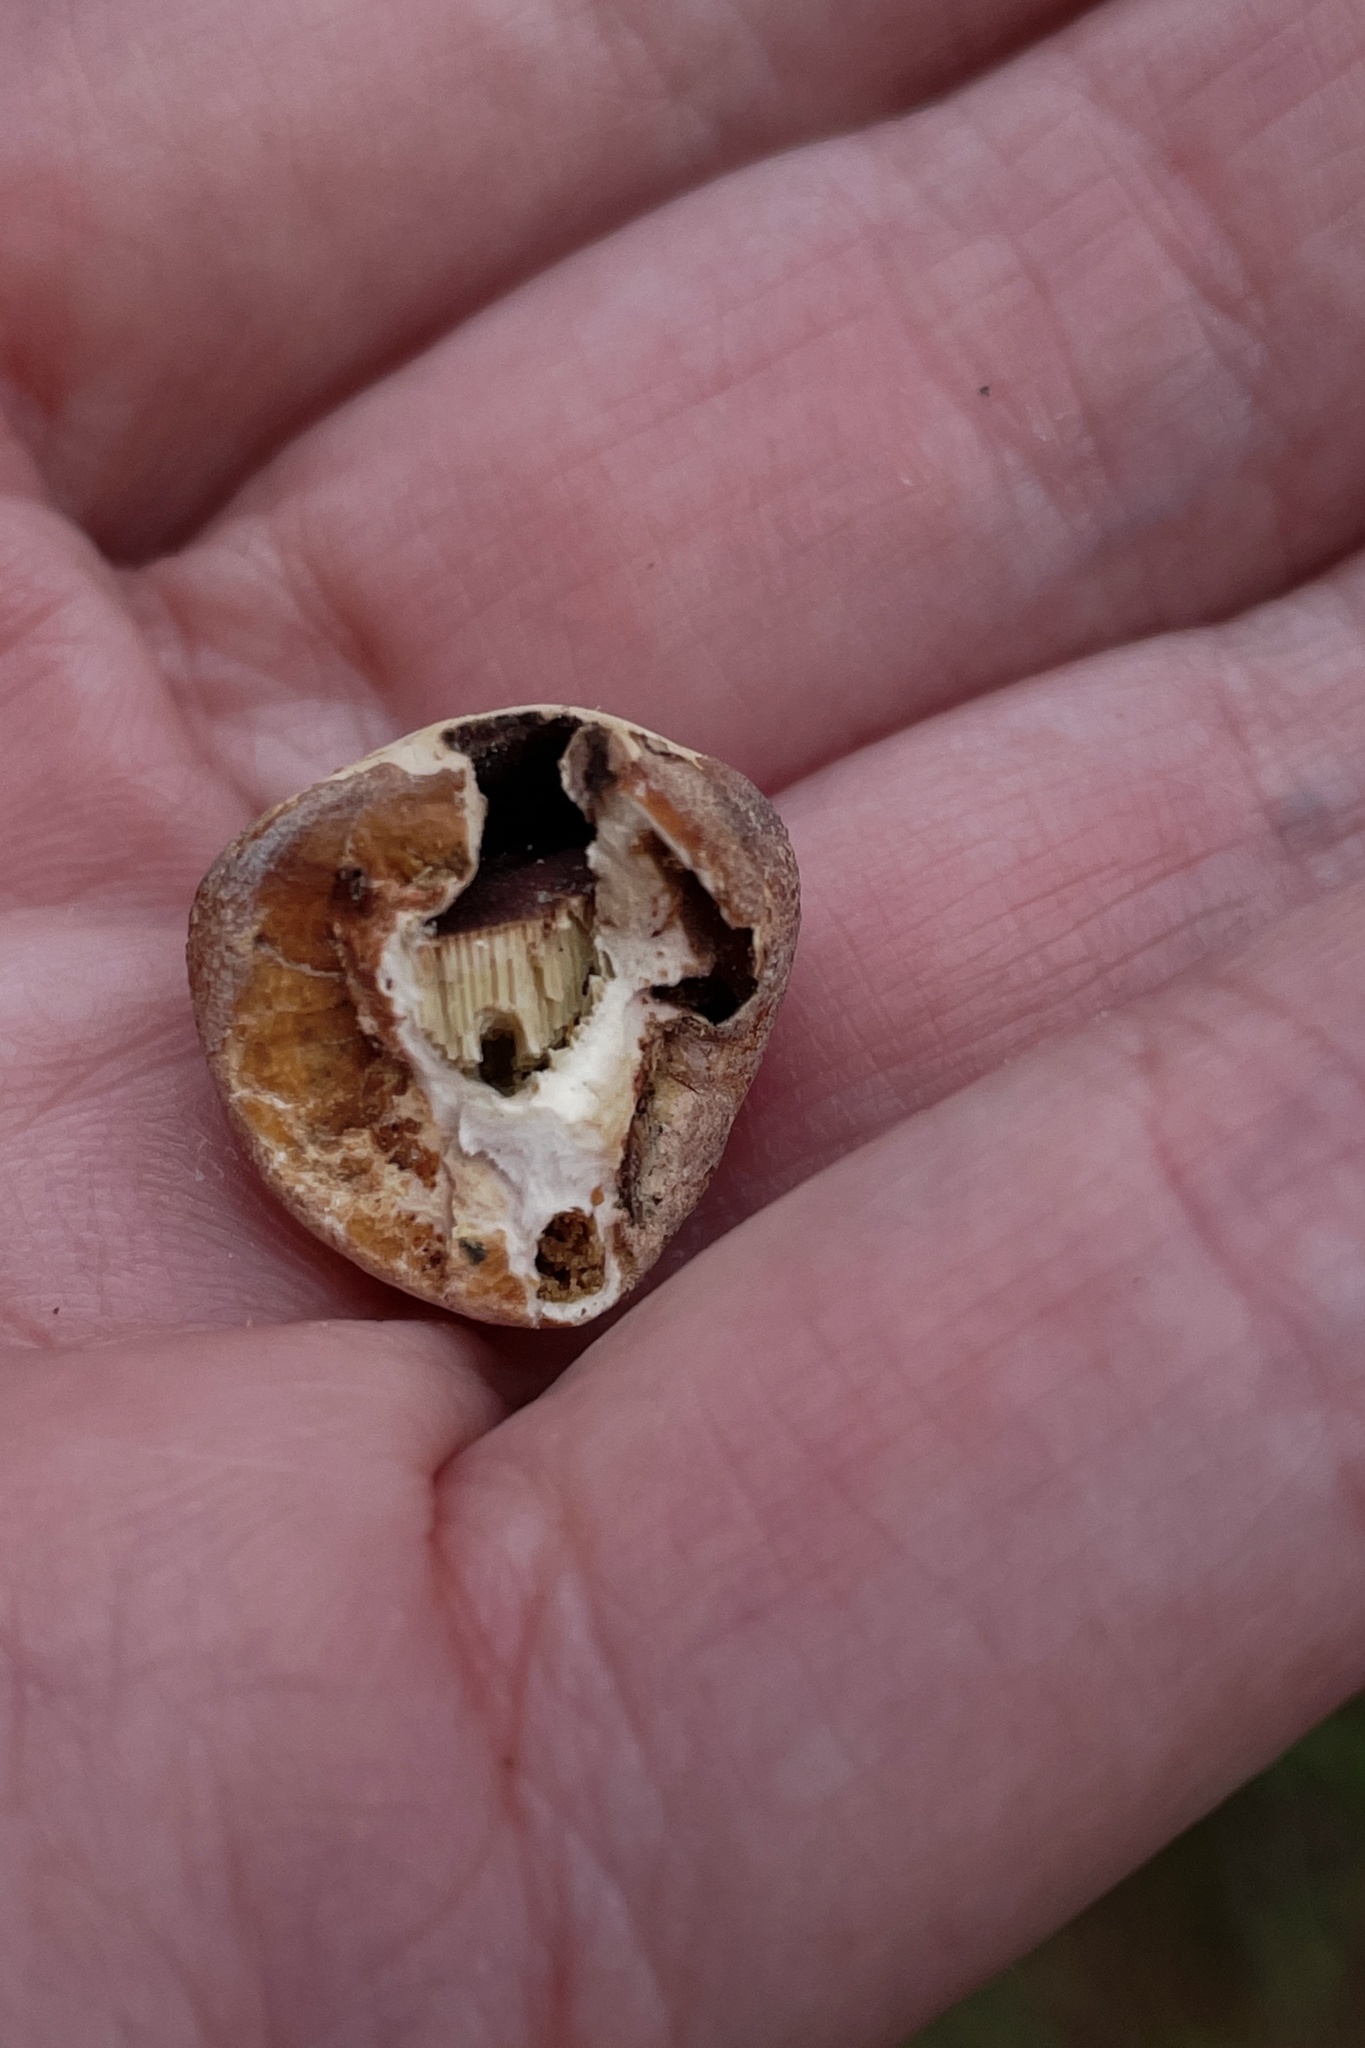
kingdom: Fungi
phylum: Basidiomycota
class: Agaricomycetes
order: Polyporales
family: Polyporaceae
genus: Cryptoporus
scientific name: Cryptoporus volvatus
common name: Veiled polypore
